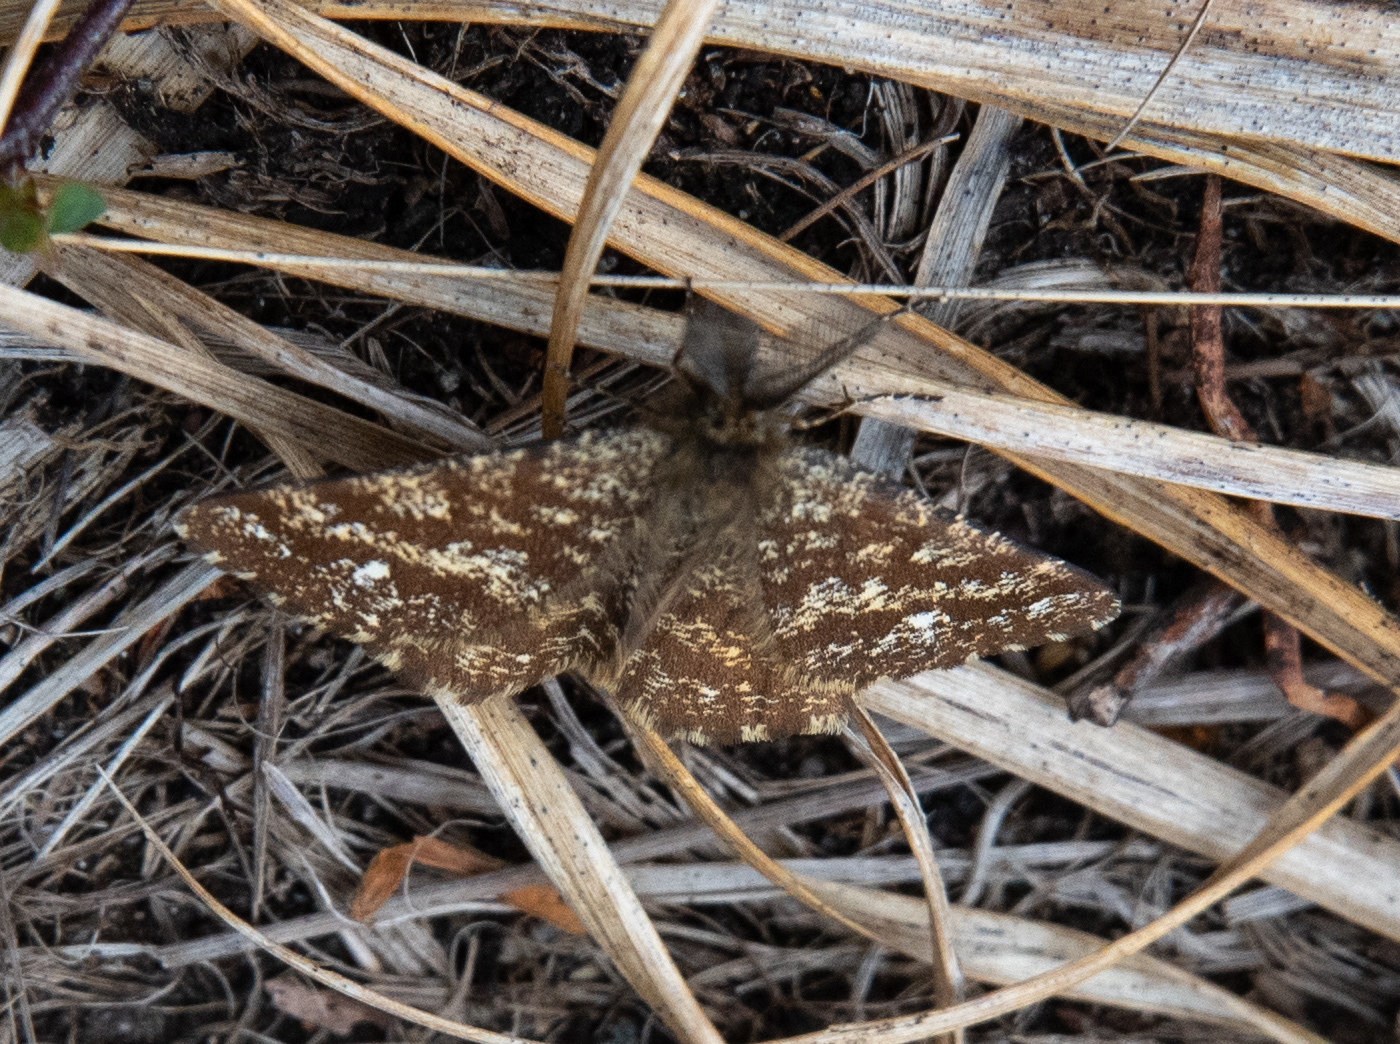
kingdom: Animalia
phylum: Arthropoda
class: Insecta
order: Lepidoptera
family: Geometridae
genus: Ematurga
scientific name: Ematurga atomaria
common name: Common heath
